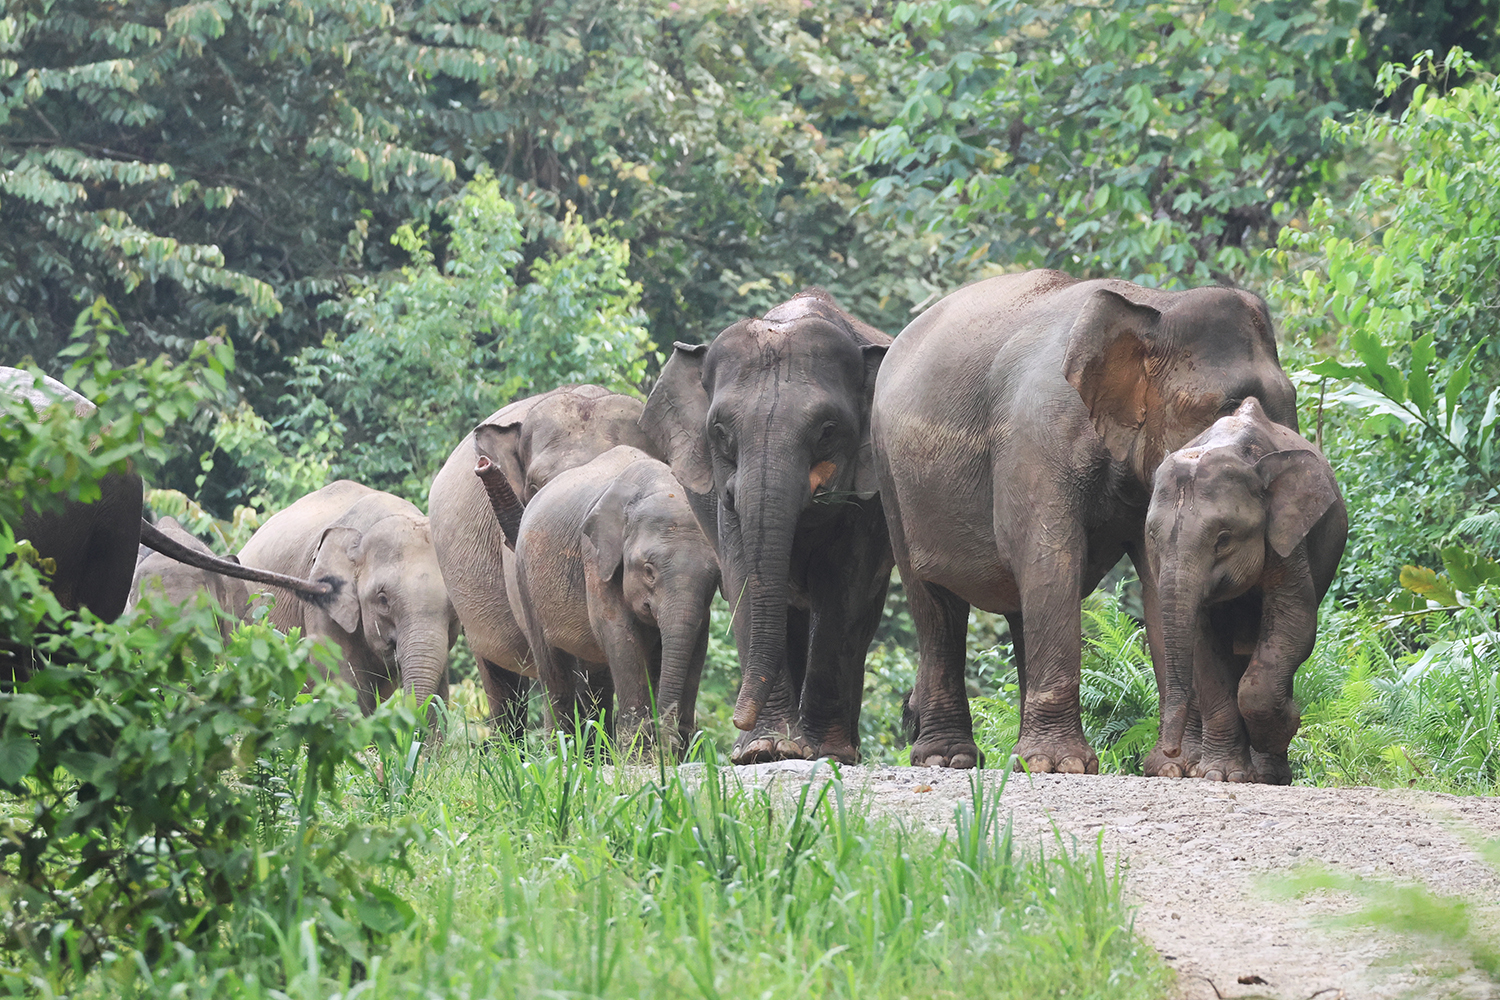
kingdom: Animalia
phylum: Chordata
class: Mammalia
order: Proboscidea
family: Elephantidae
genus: Elephas
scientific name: Elephas maximus
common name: Asian elephant
